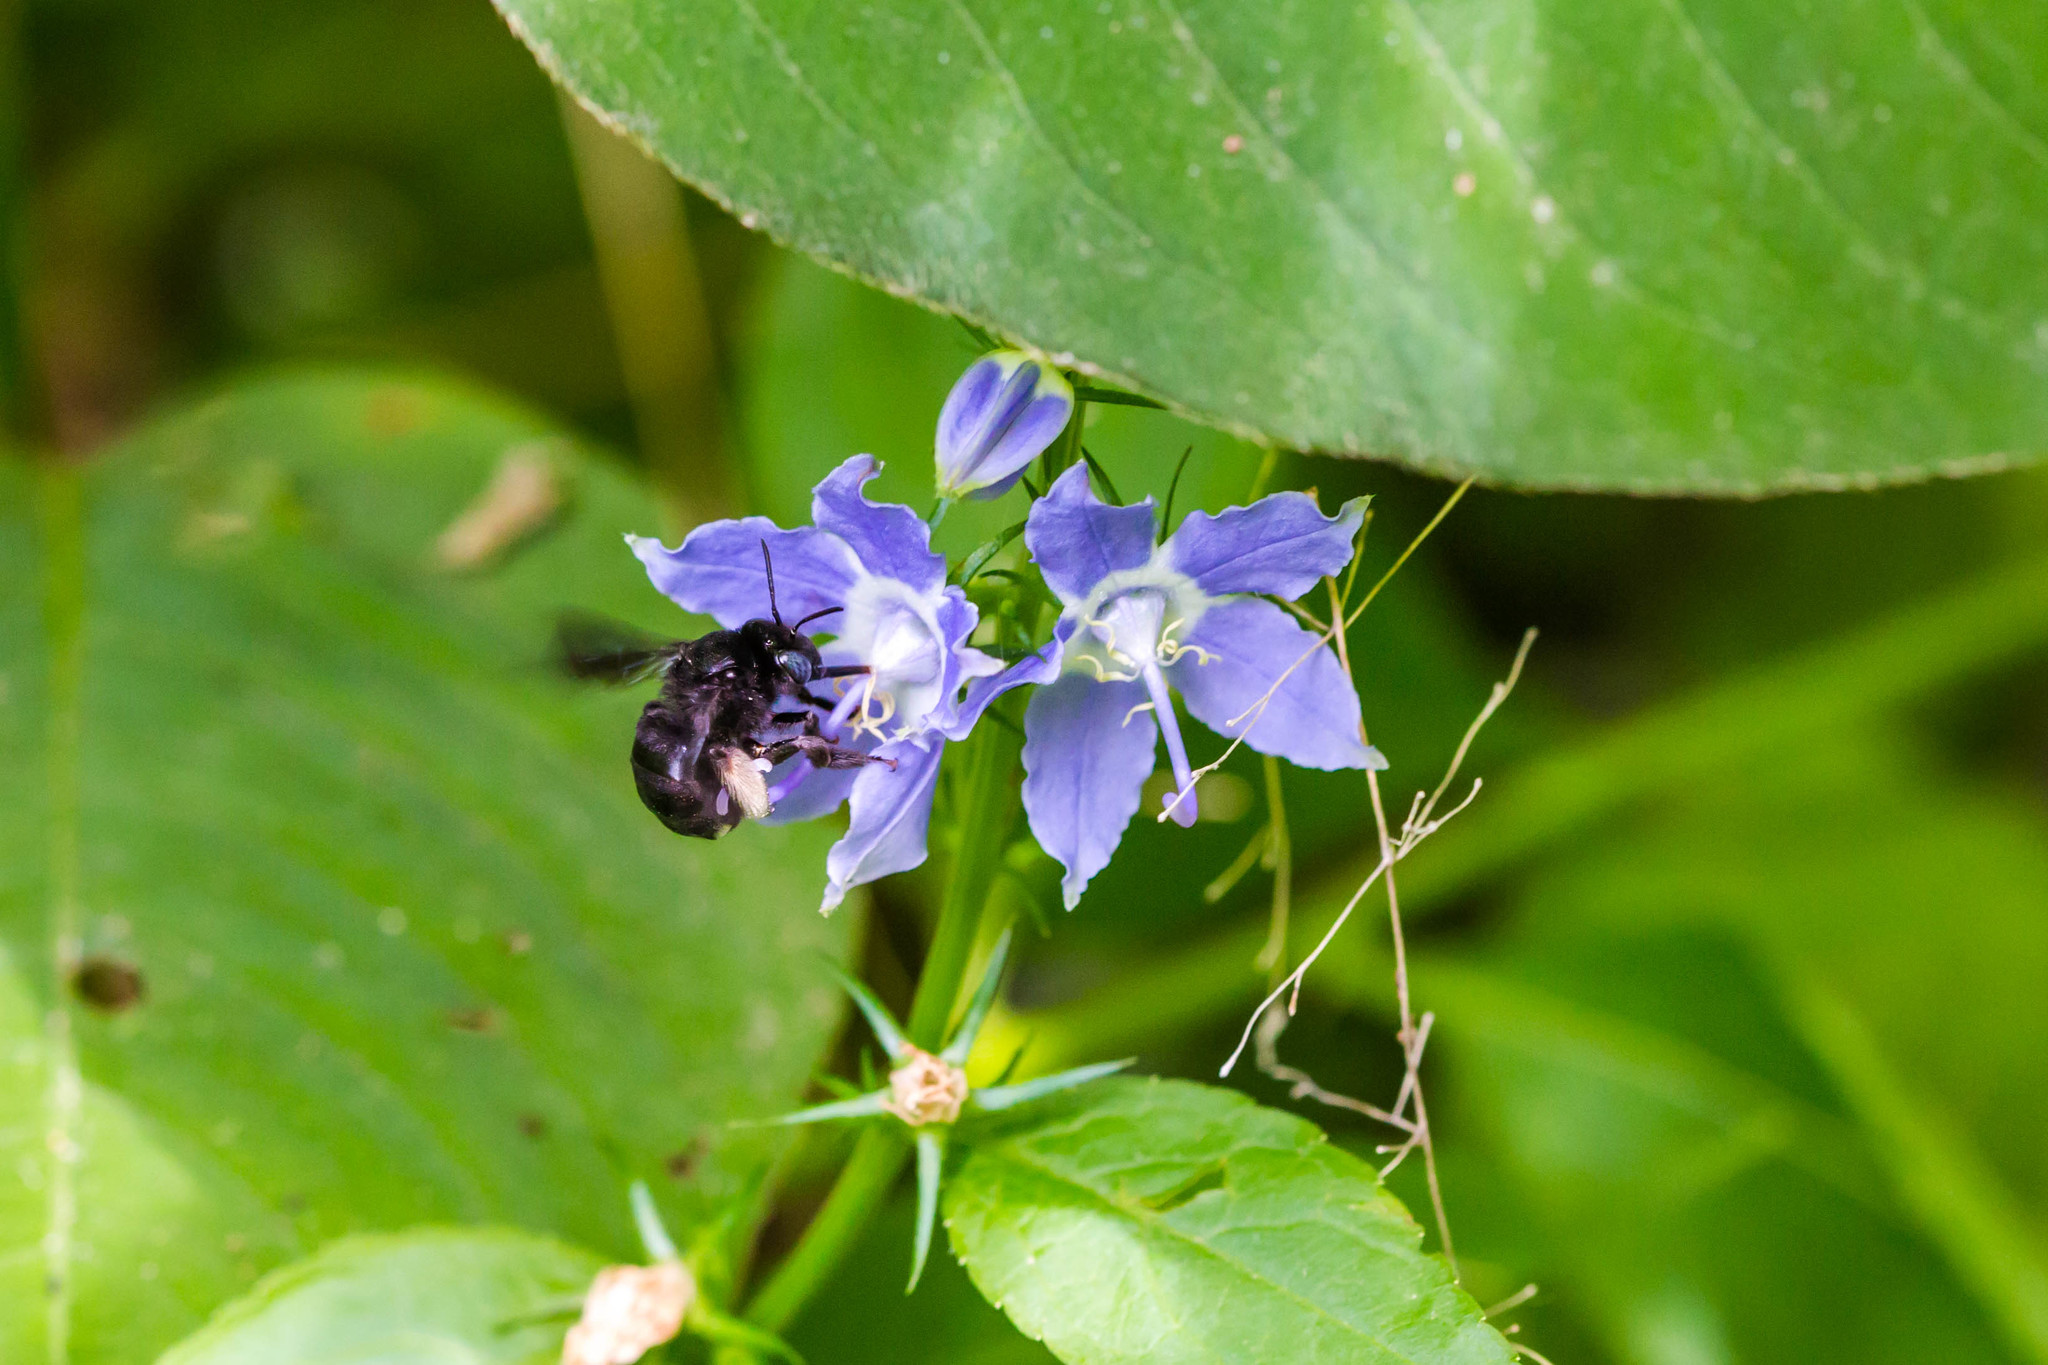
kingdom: Animalia
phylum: Arthropoda
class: Insecta
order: Hymenoptera
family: Apidae
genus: Melissodes
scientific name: Melissodes bimaculatus
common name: Two-spotted long-horned bee
